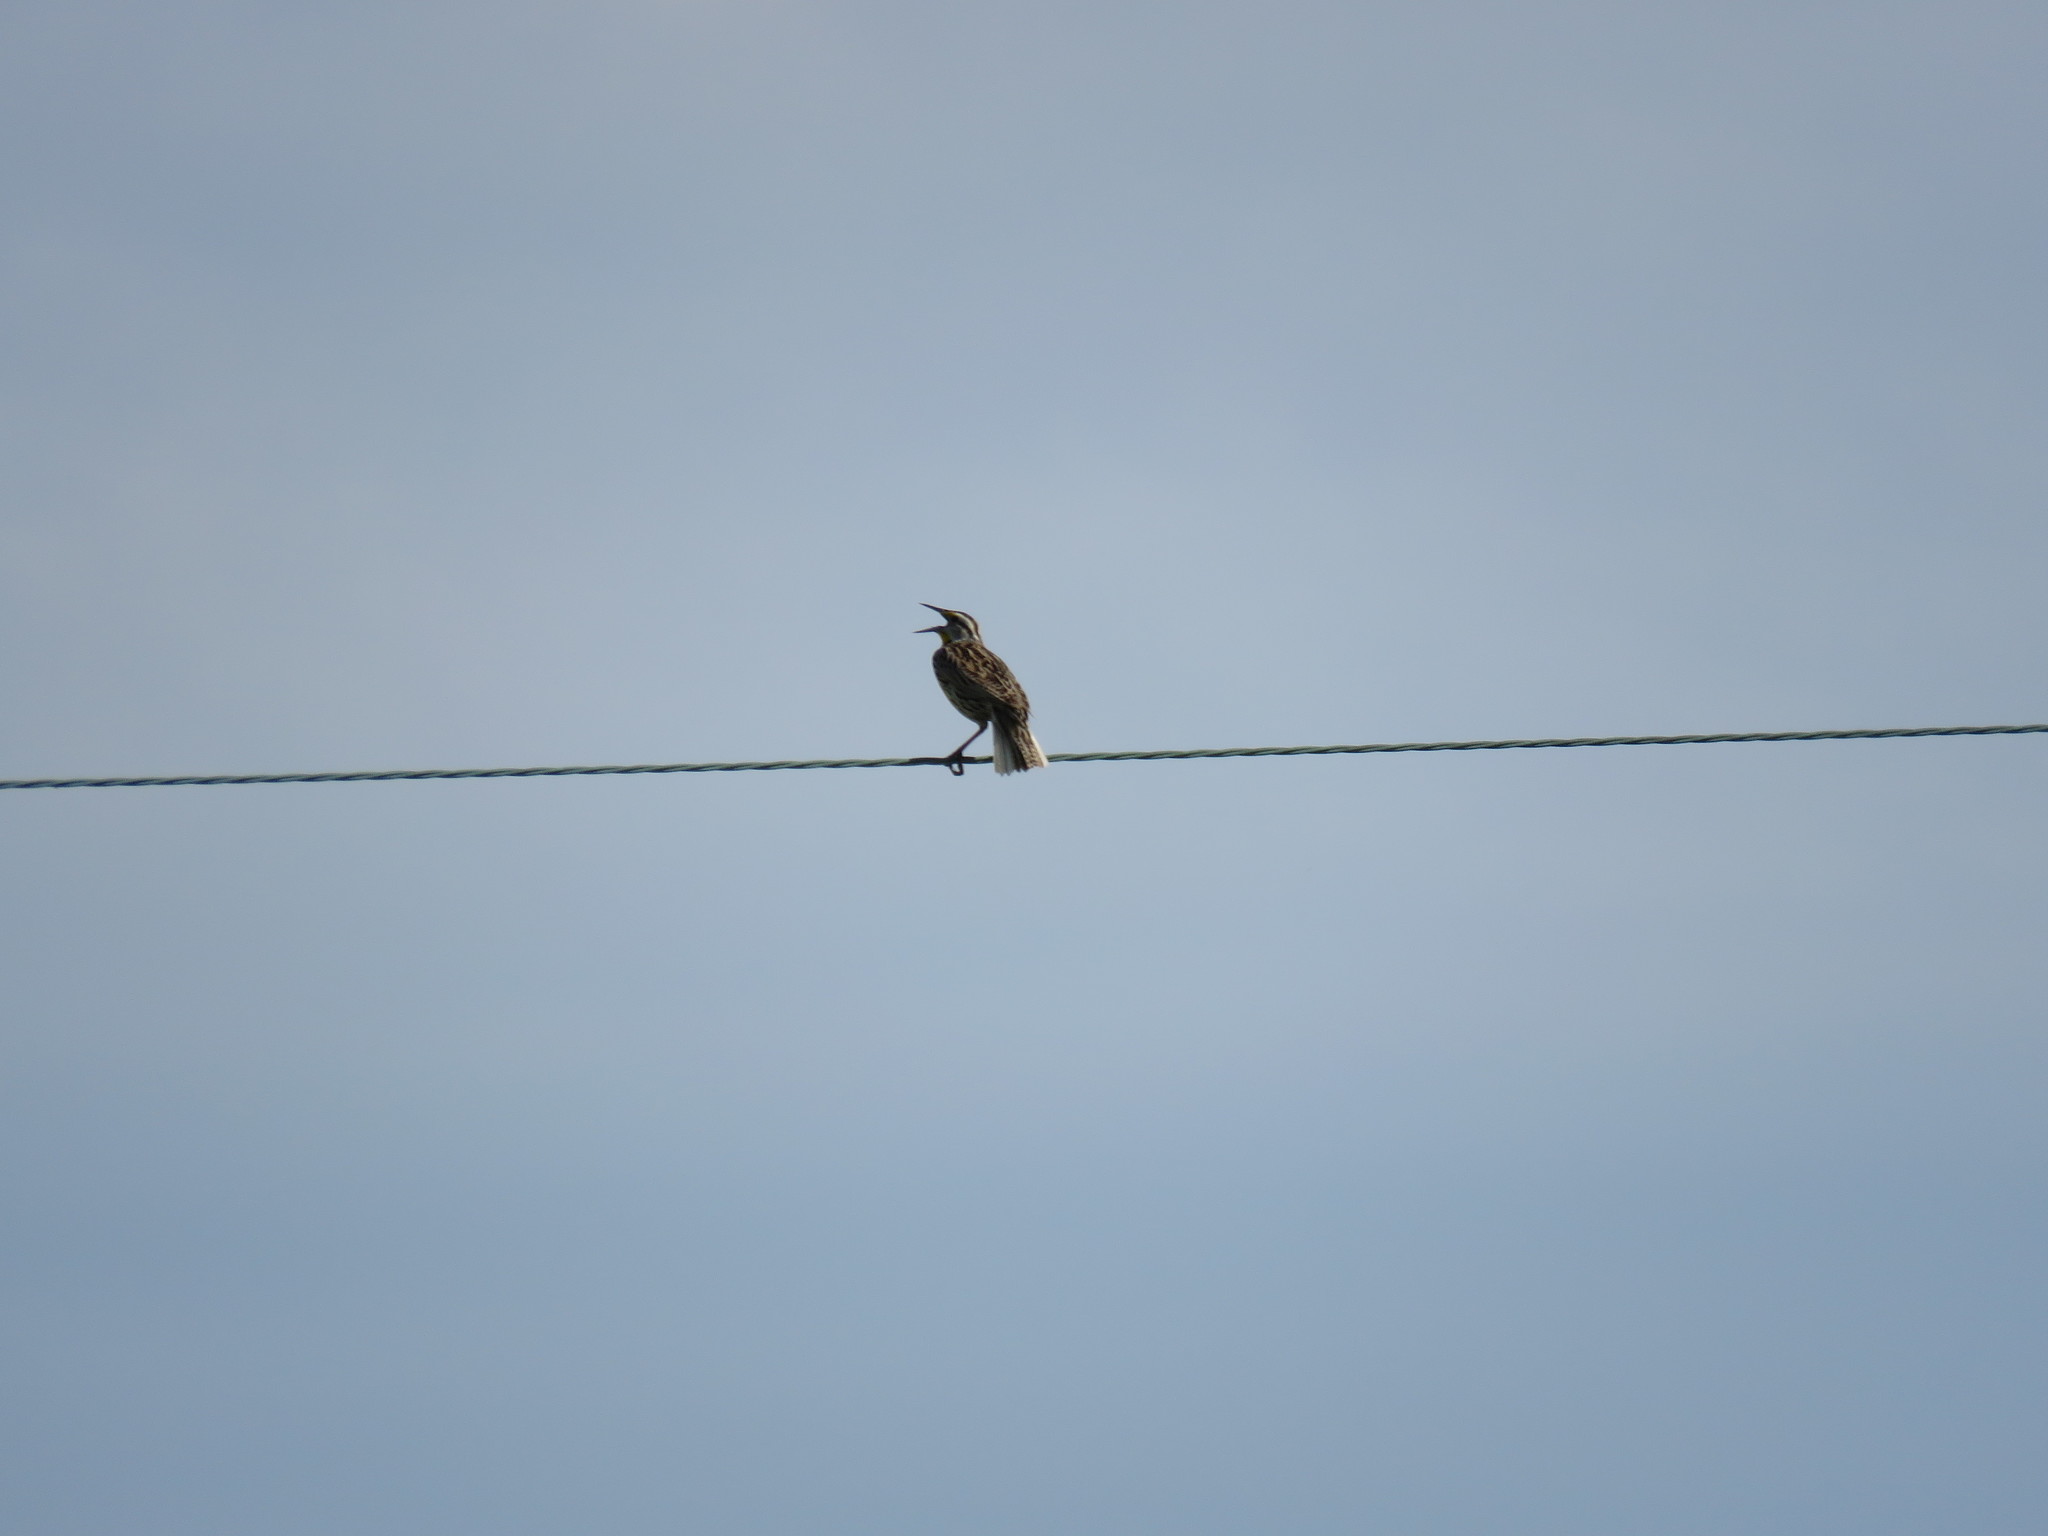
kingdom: Animalia
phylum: Chordata
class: Aves
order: Passeriformes
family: Icteridae
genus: Sturnella
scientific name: Sturnella magna
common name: Eastern meadowlark
